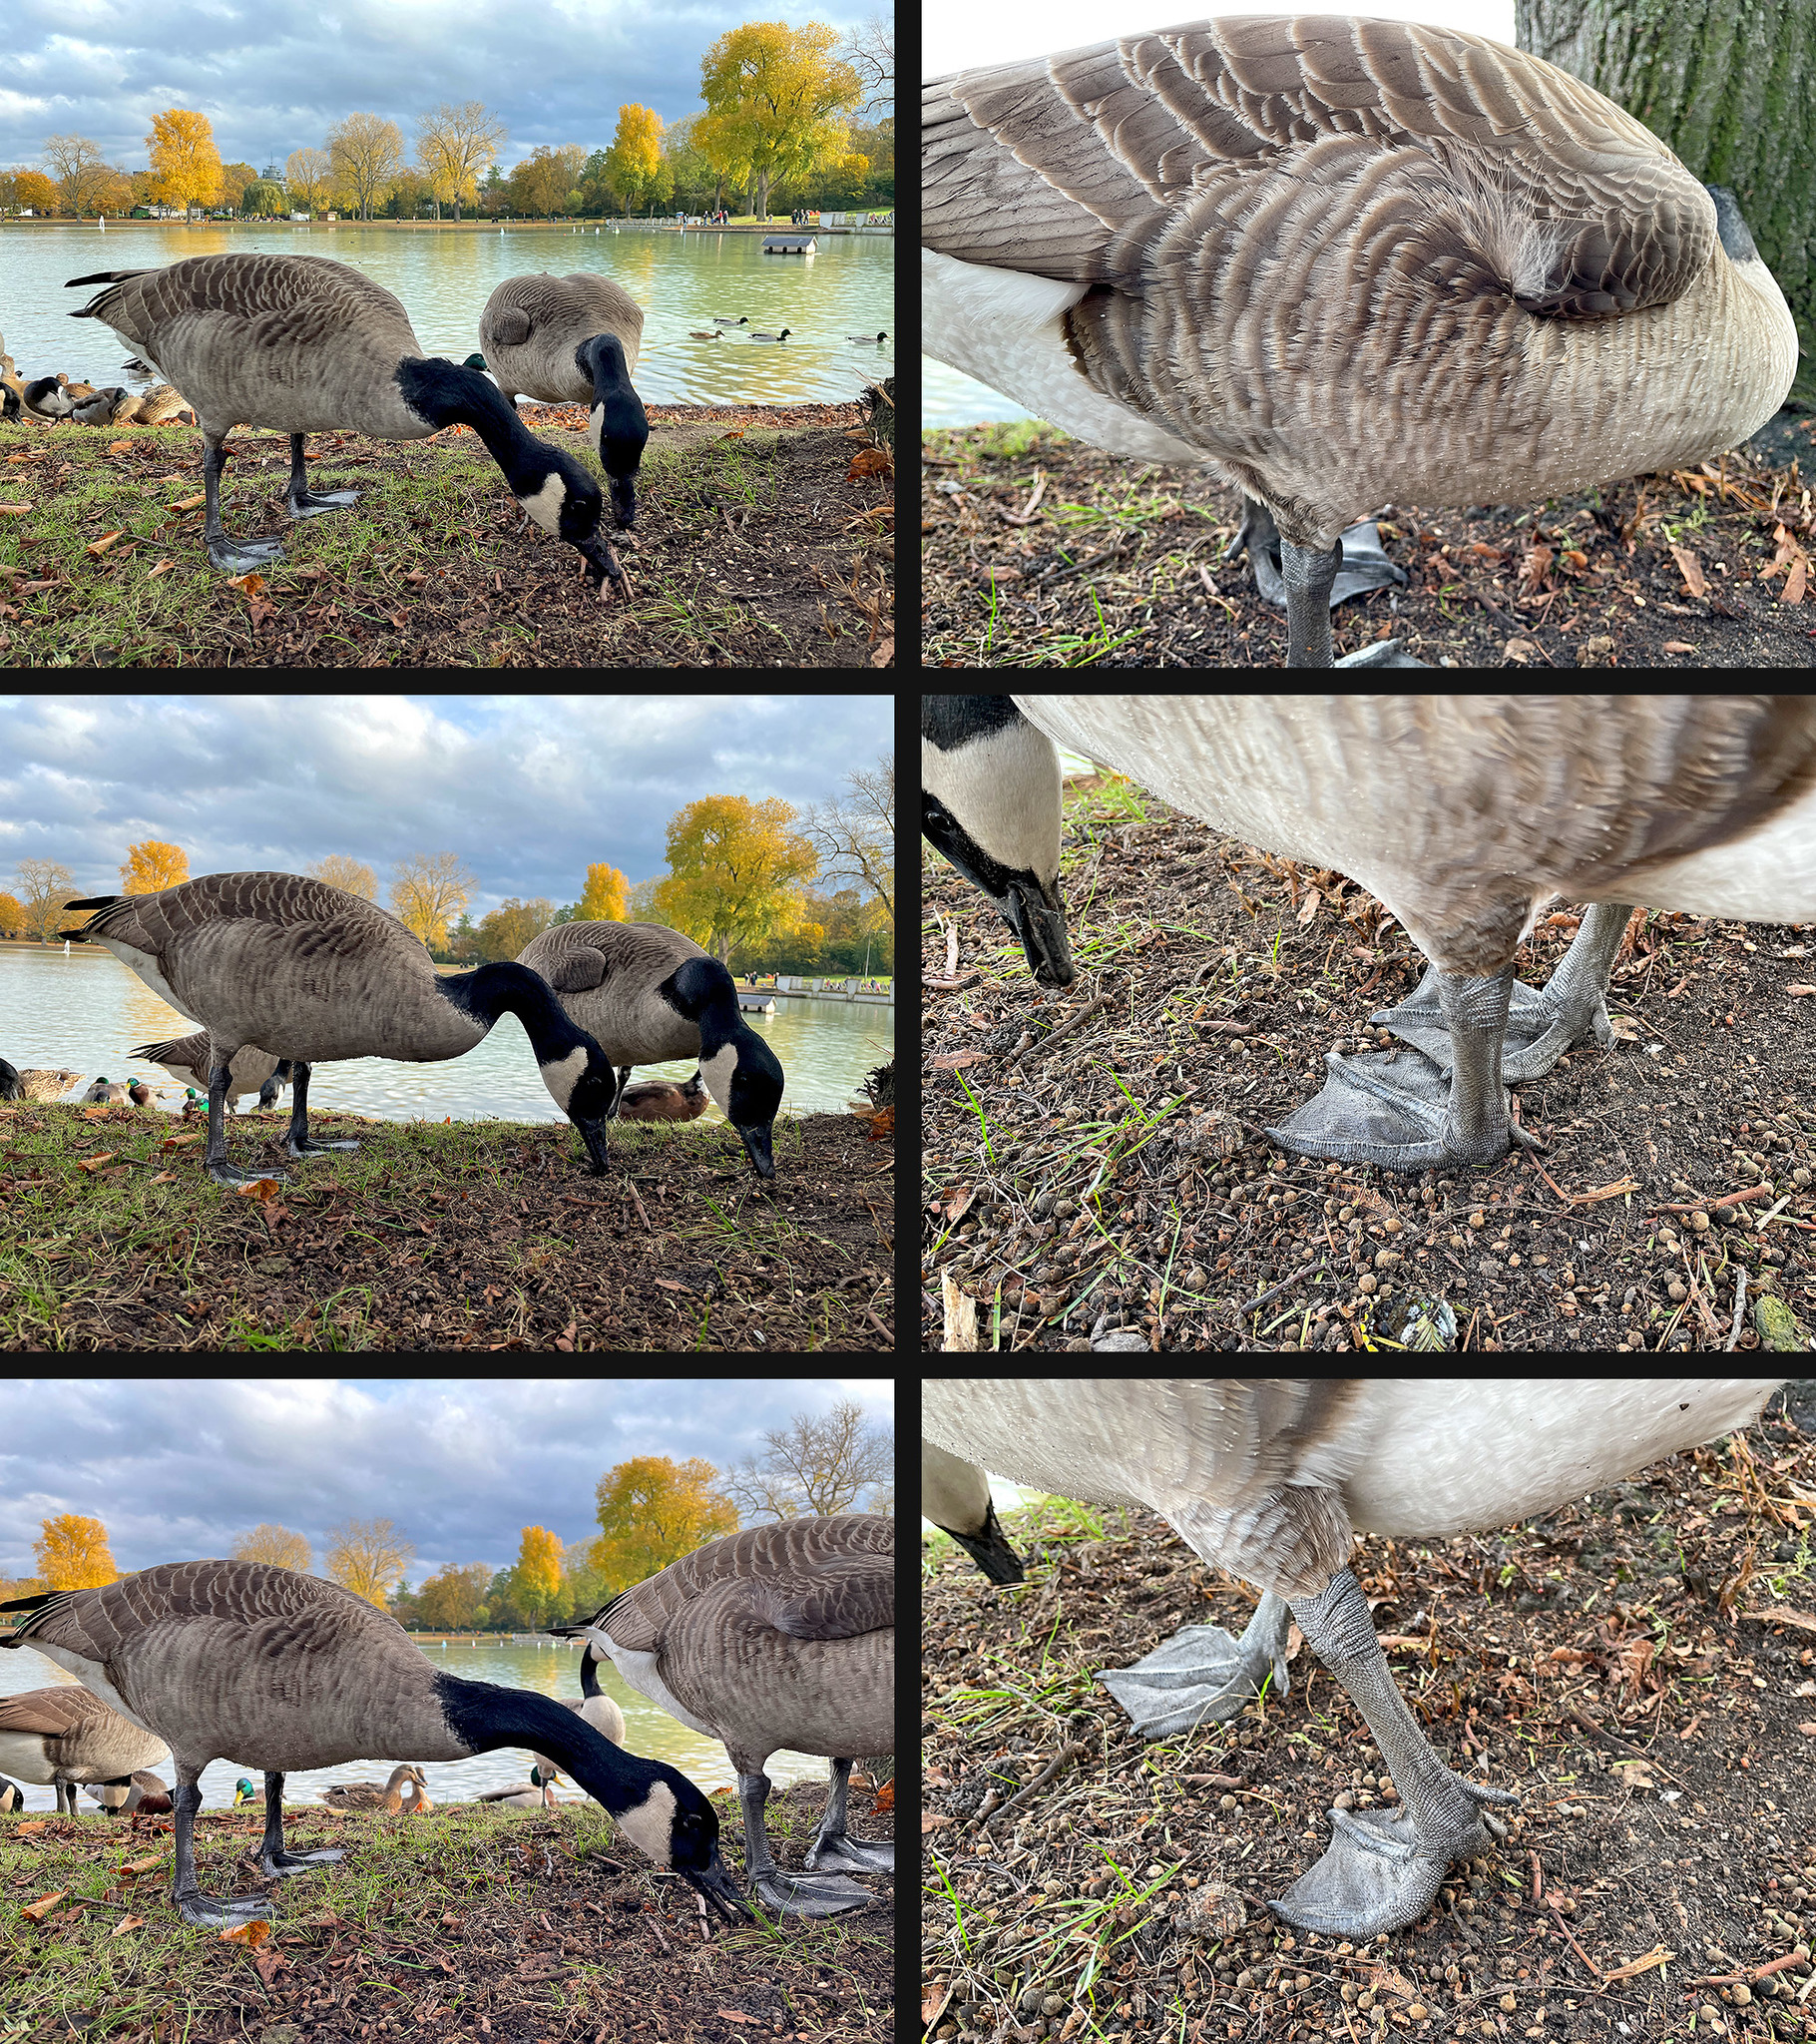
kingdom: Animalia
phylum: Chordata
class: Aves
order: Anseriformes
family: Anatidae
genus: Branta
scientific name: Branta canadensis
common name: Canada goose
